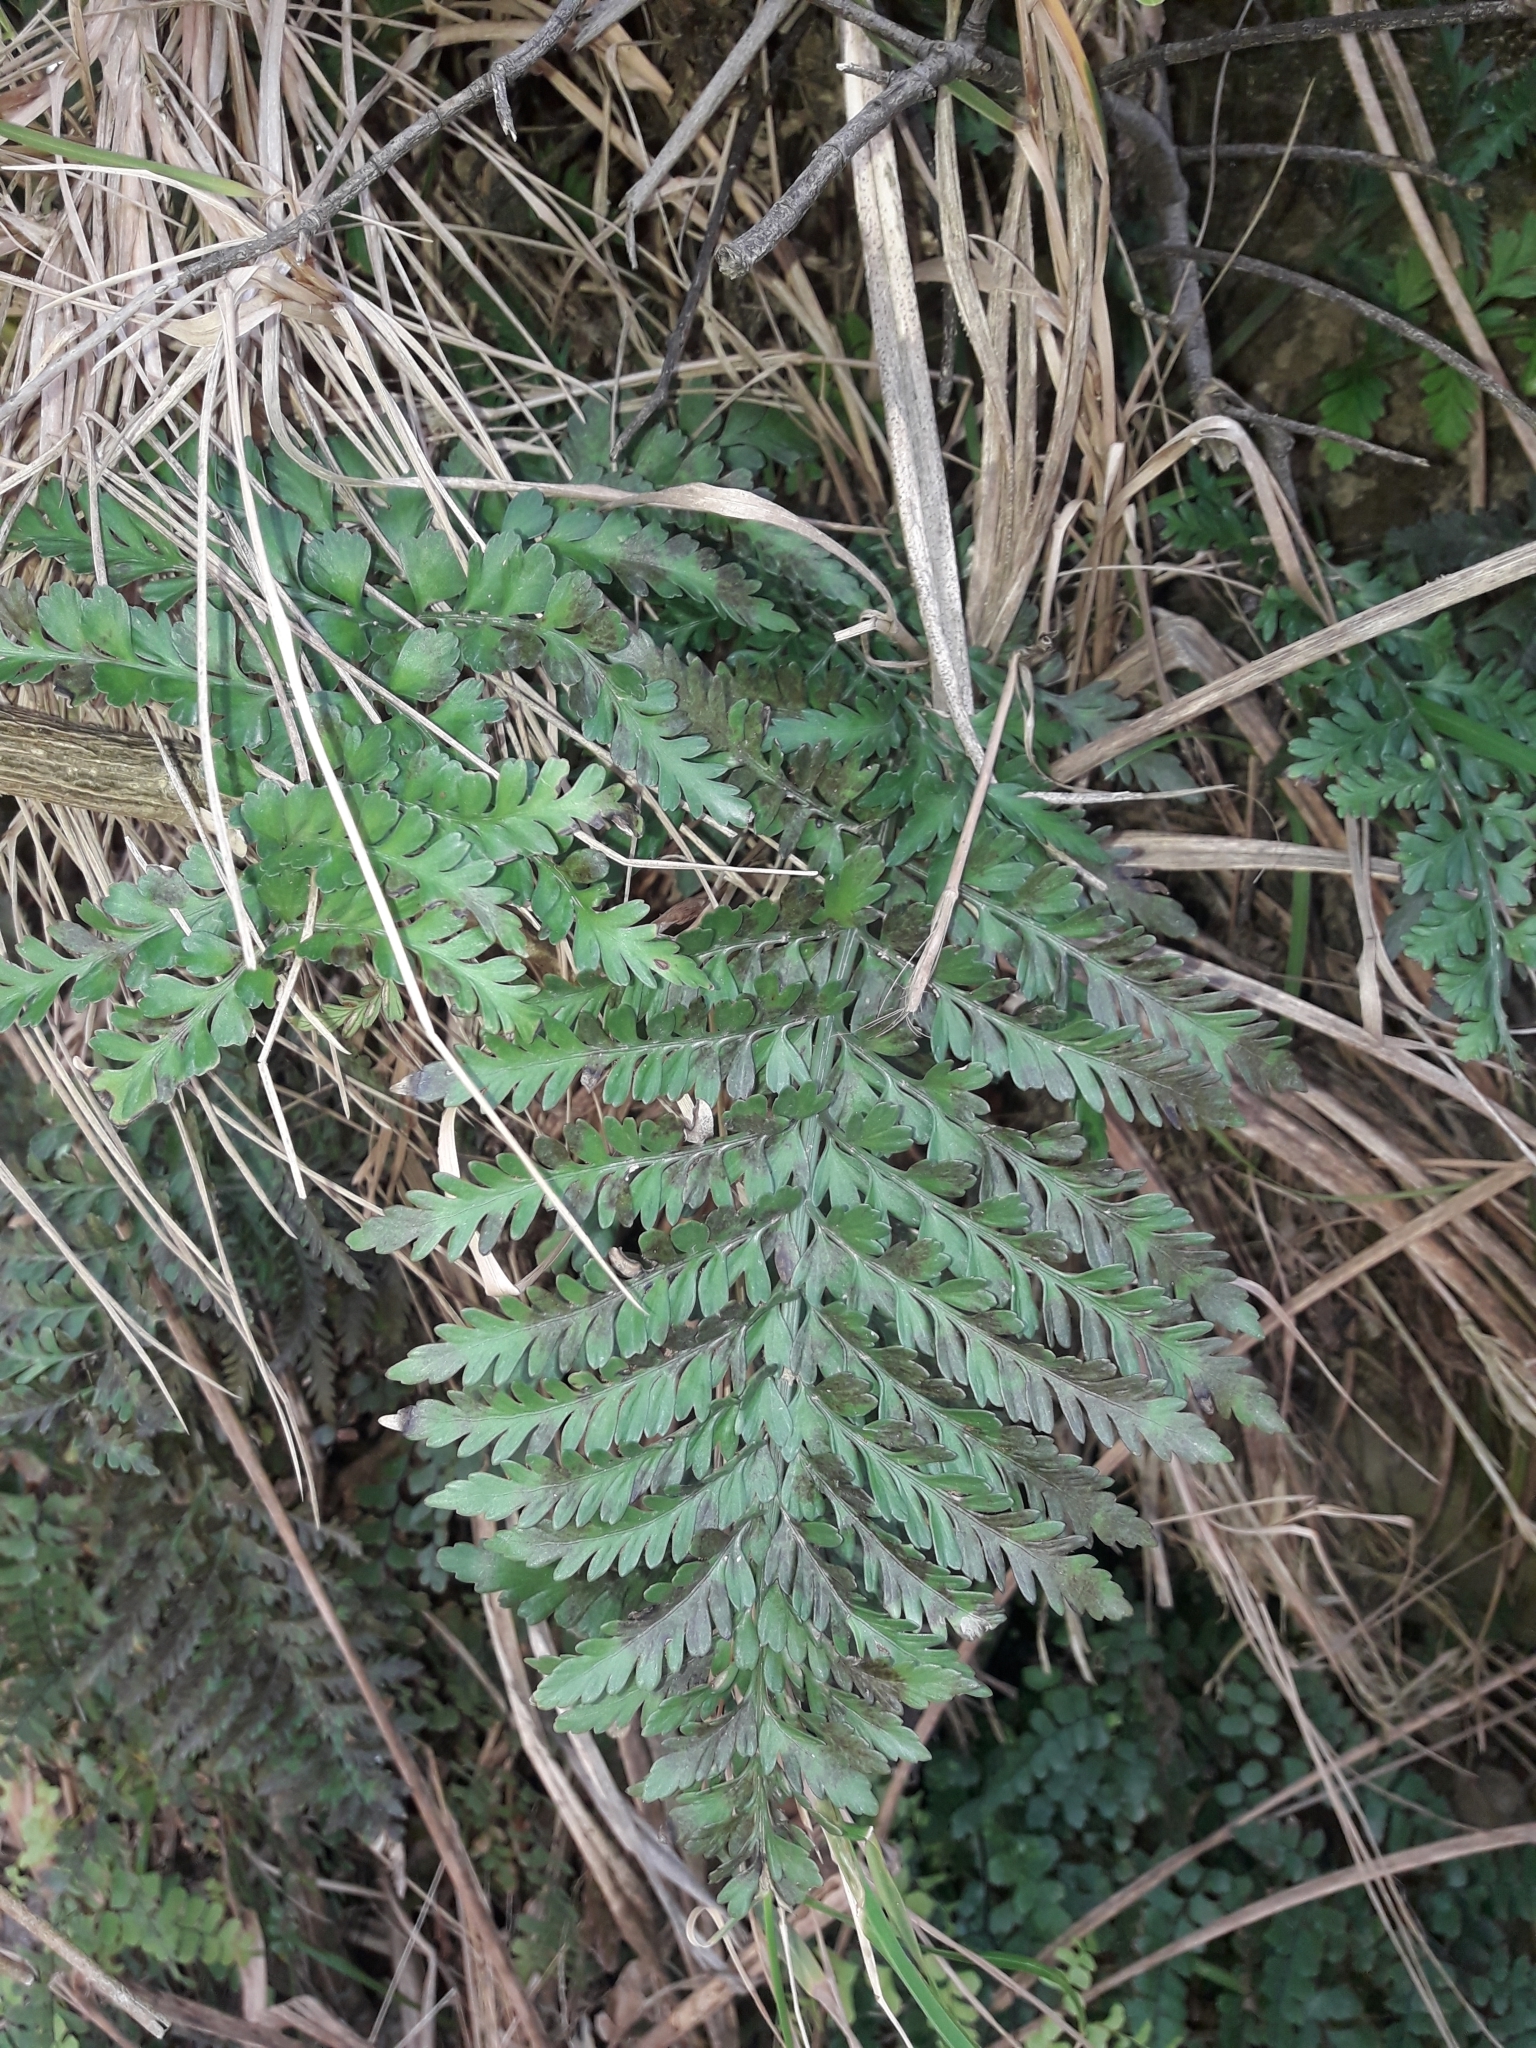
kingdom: Plantae
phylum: Tracheophyta
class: Polypodiopsida
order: Polypodiales
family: Aspleniaceae
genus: Asplenium
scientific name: Asplenium appendiculatum
